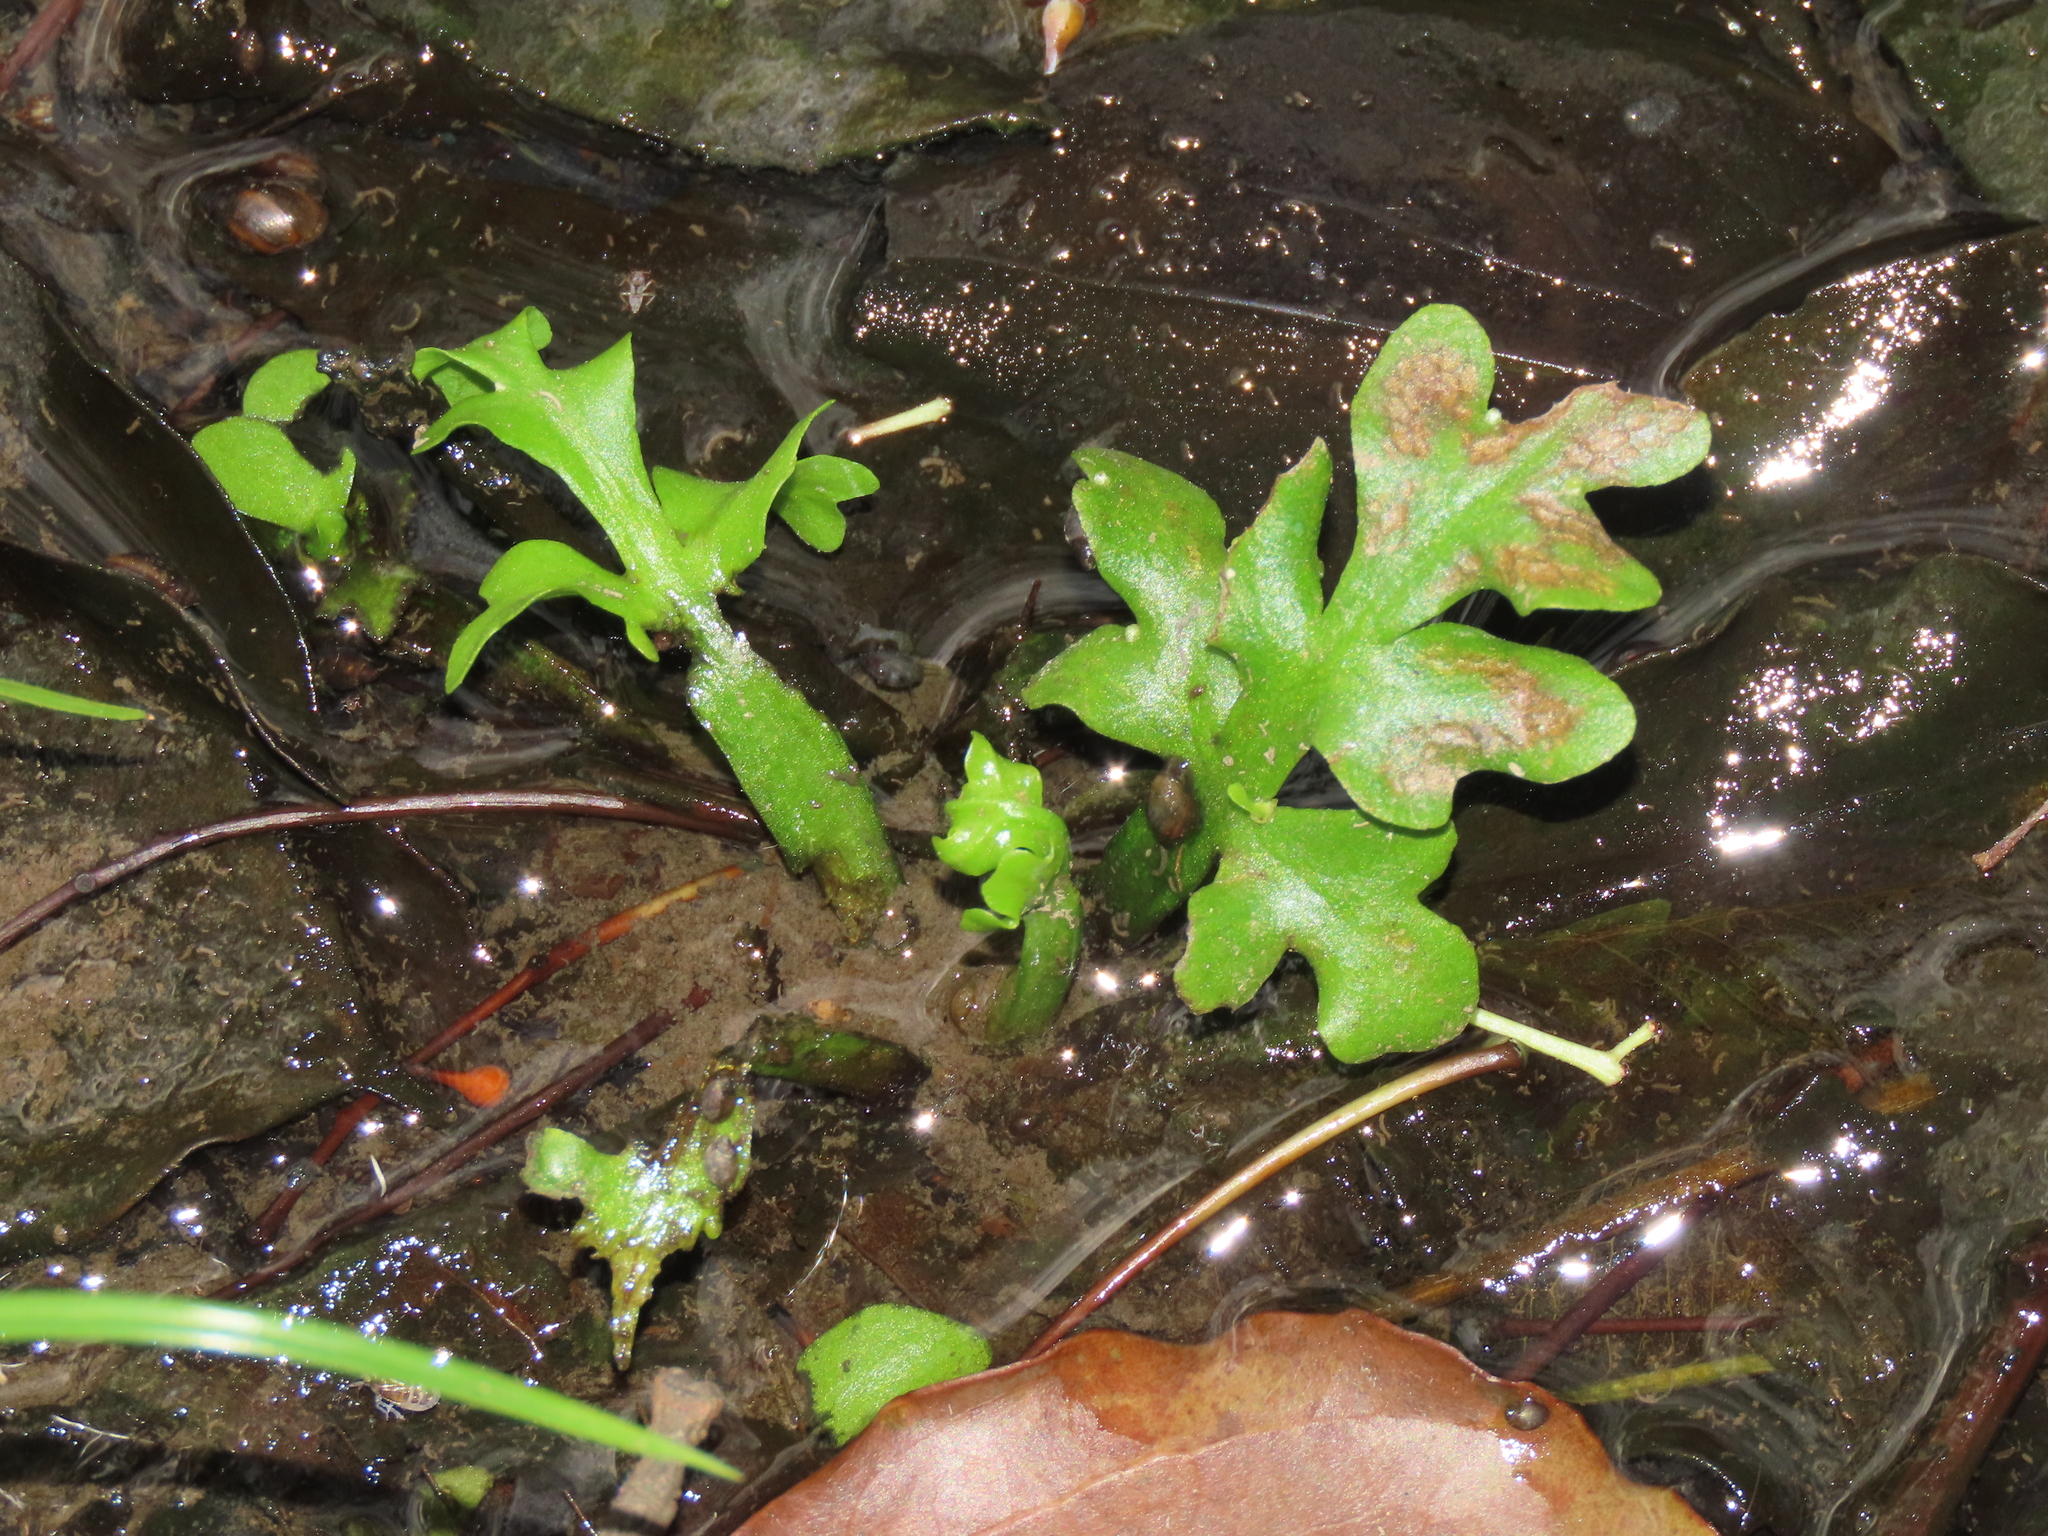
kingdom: Plantae
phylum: Tracheophyta
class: Polypodiopsida
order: Polypodiales
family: Pteridaceae
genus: Ceratopteris
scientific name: Ceratopteris thalictroides
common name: Water fern
